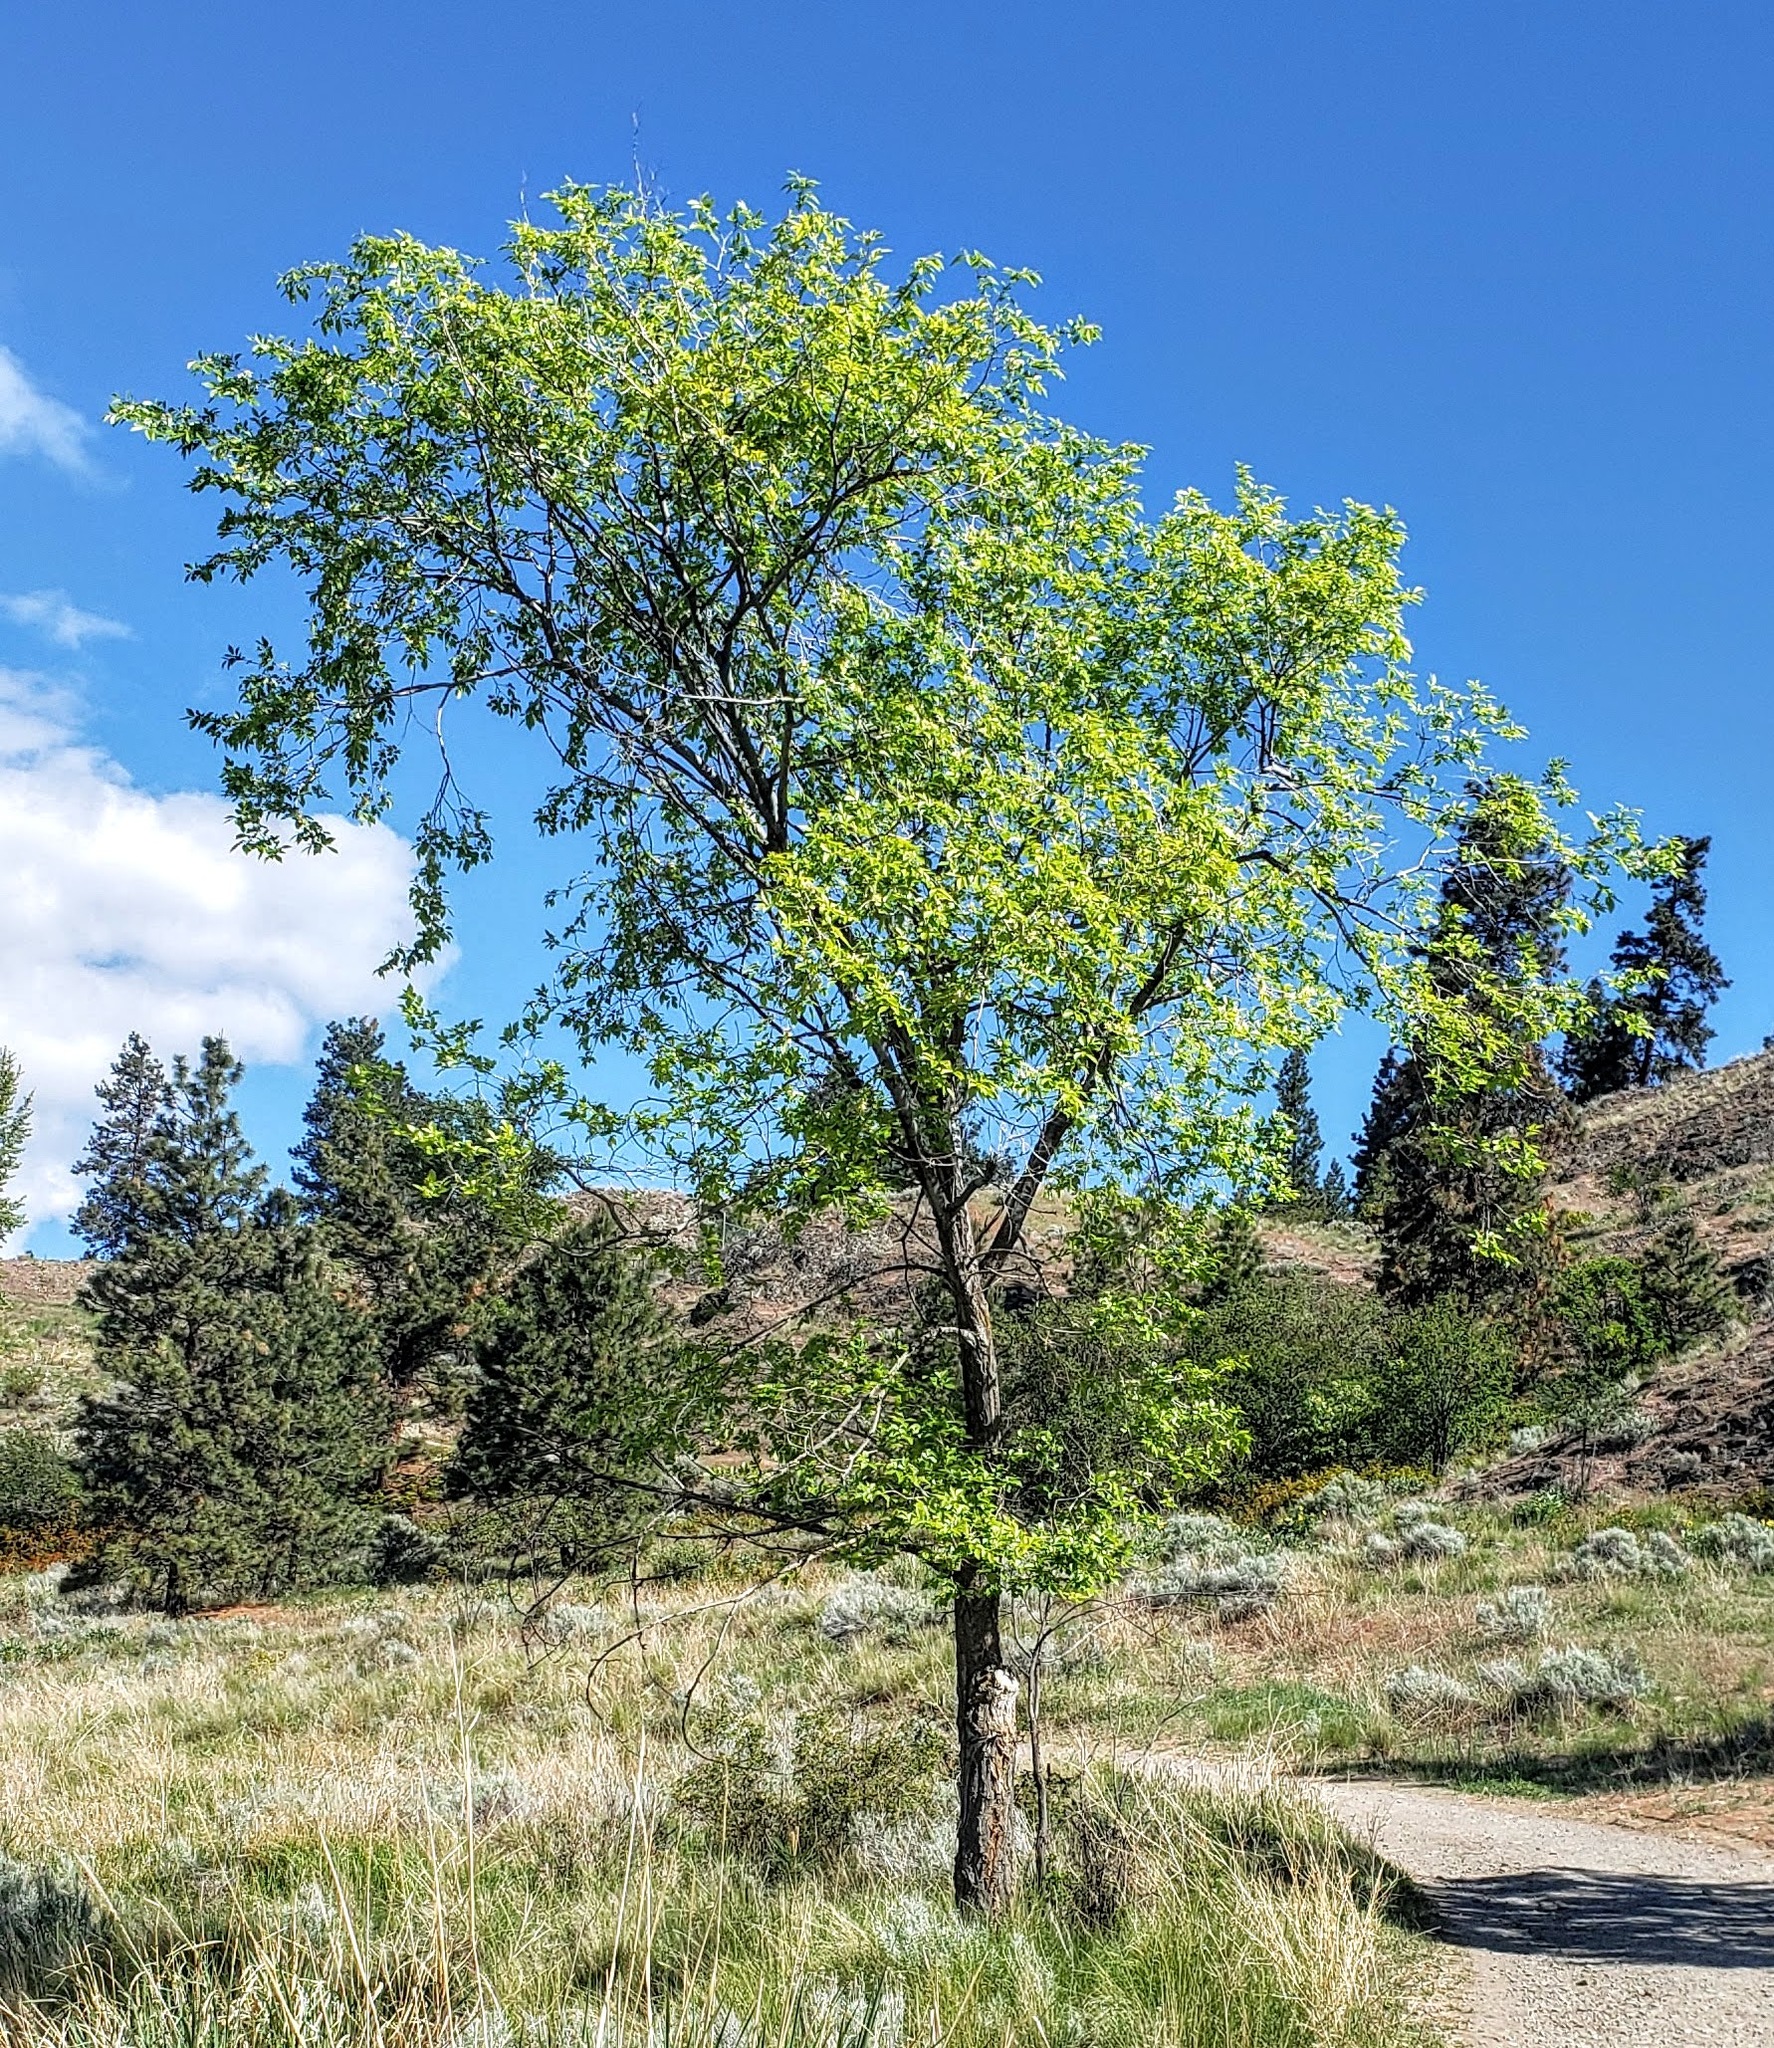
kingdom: Plantae
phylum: Tracheophyta
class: Magnoliopsida
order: Rosales
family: Ulmaceae
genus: Ulmus
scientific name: Ulmus pumila
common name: Siberian elm
